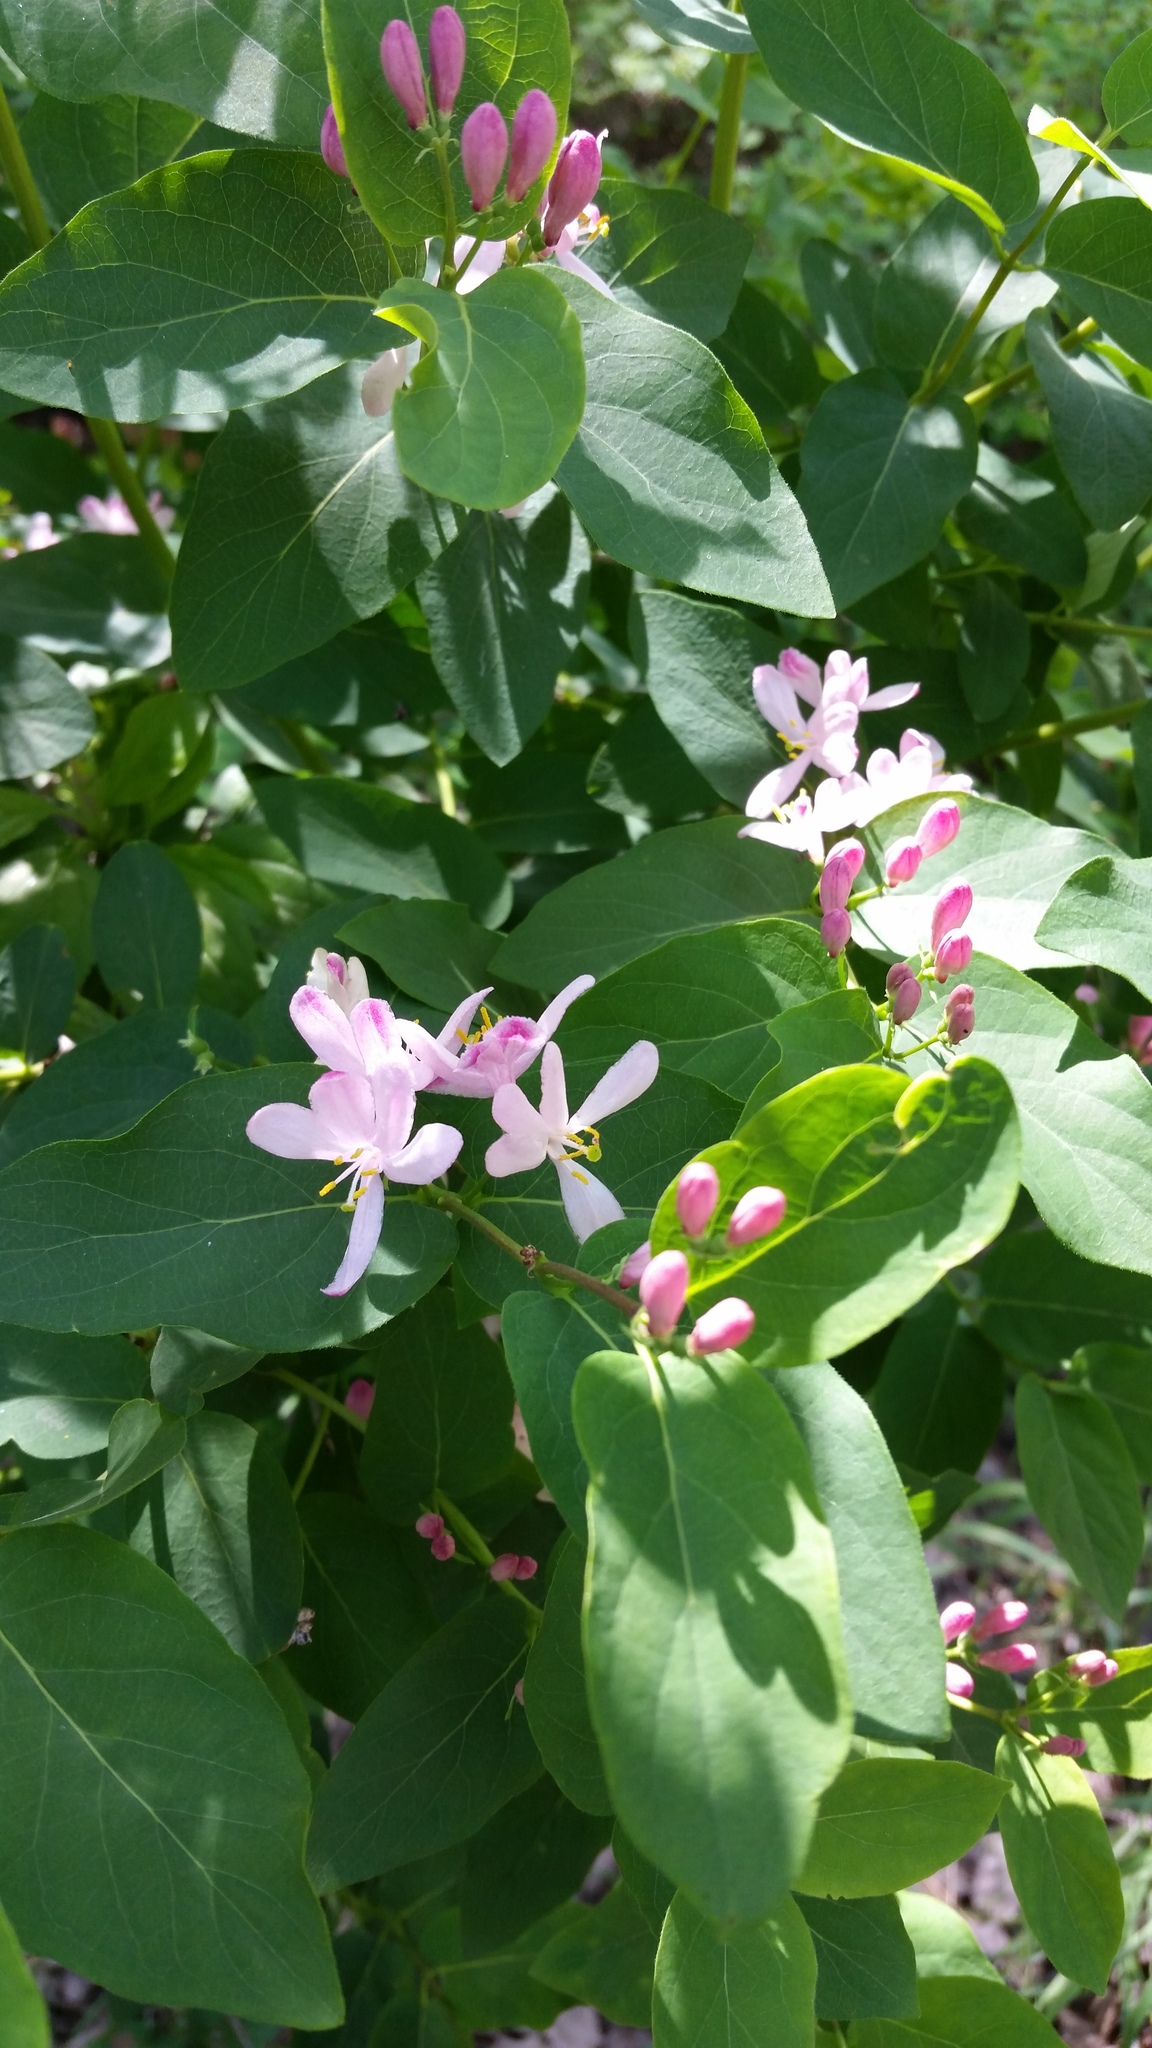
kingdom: Plantae
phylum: Tracheophyta
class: Magnoliopsida
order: Dipsacales
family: Caprifoliaceae
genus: Lonicera
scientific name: Lonicera tatarica
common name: Tatarian honeysuckle
